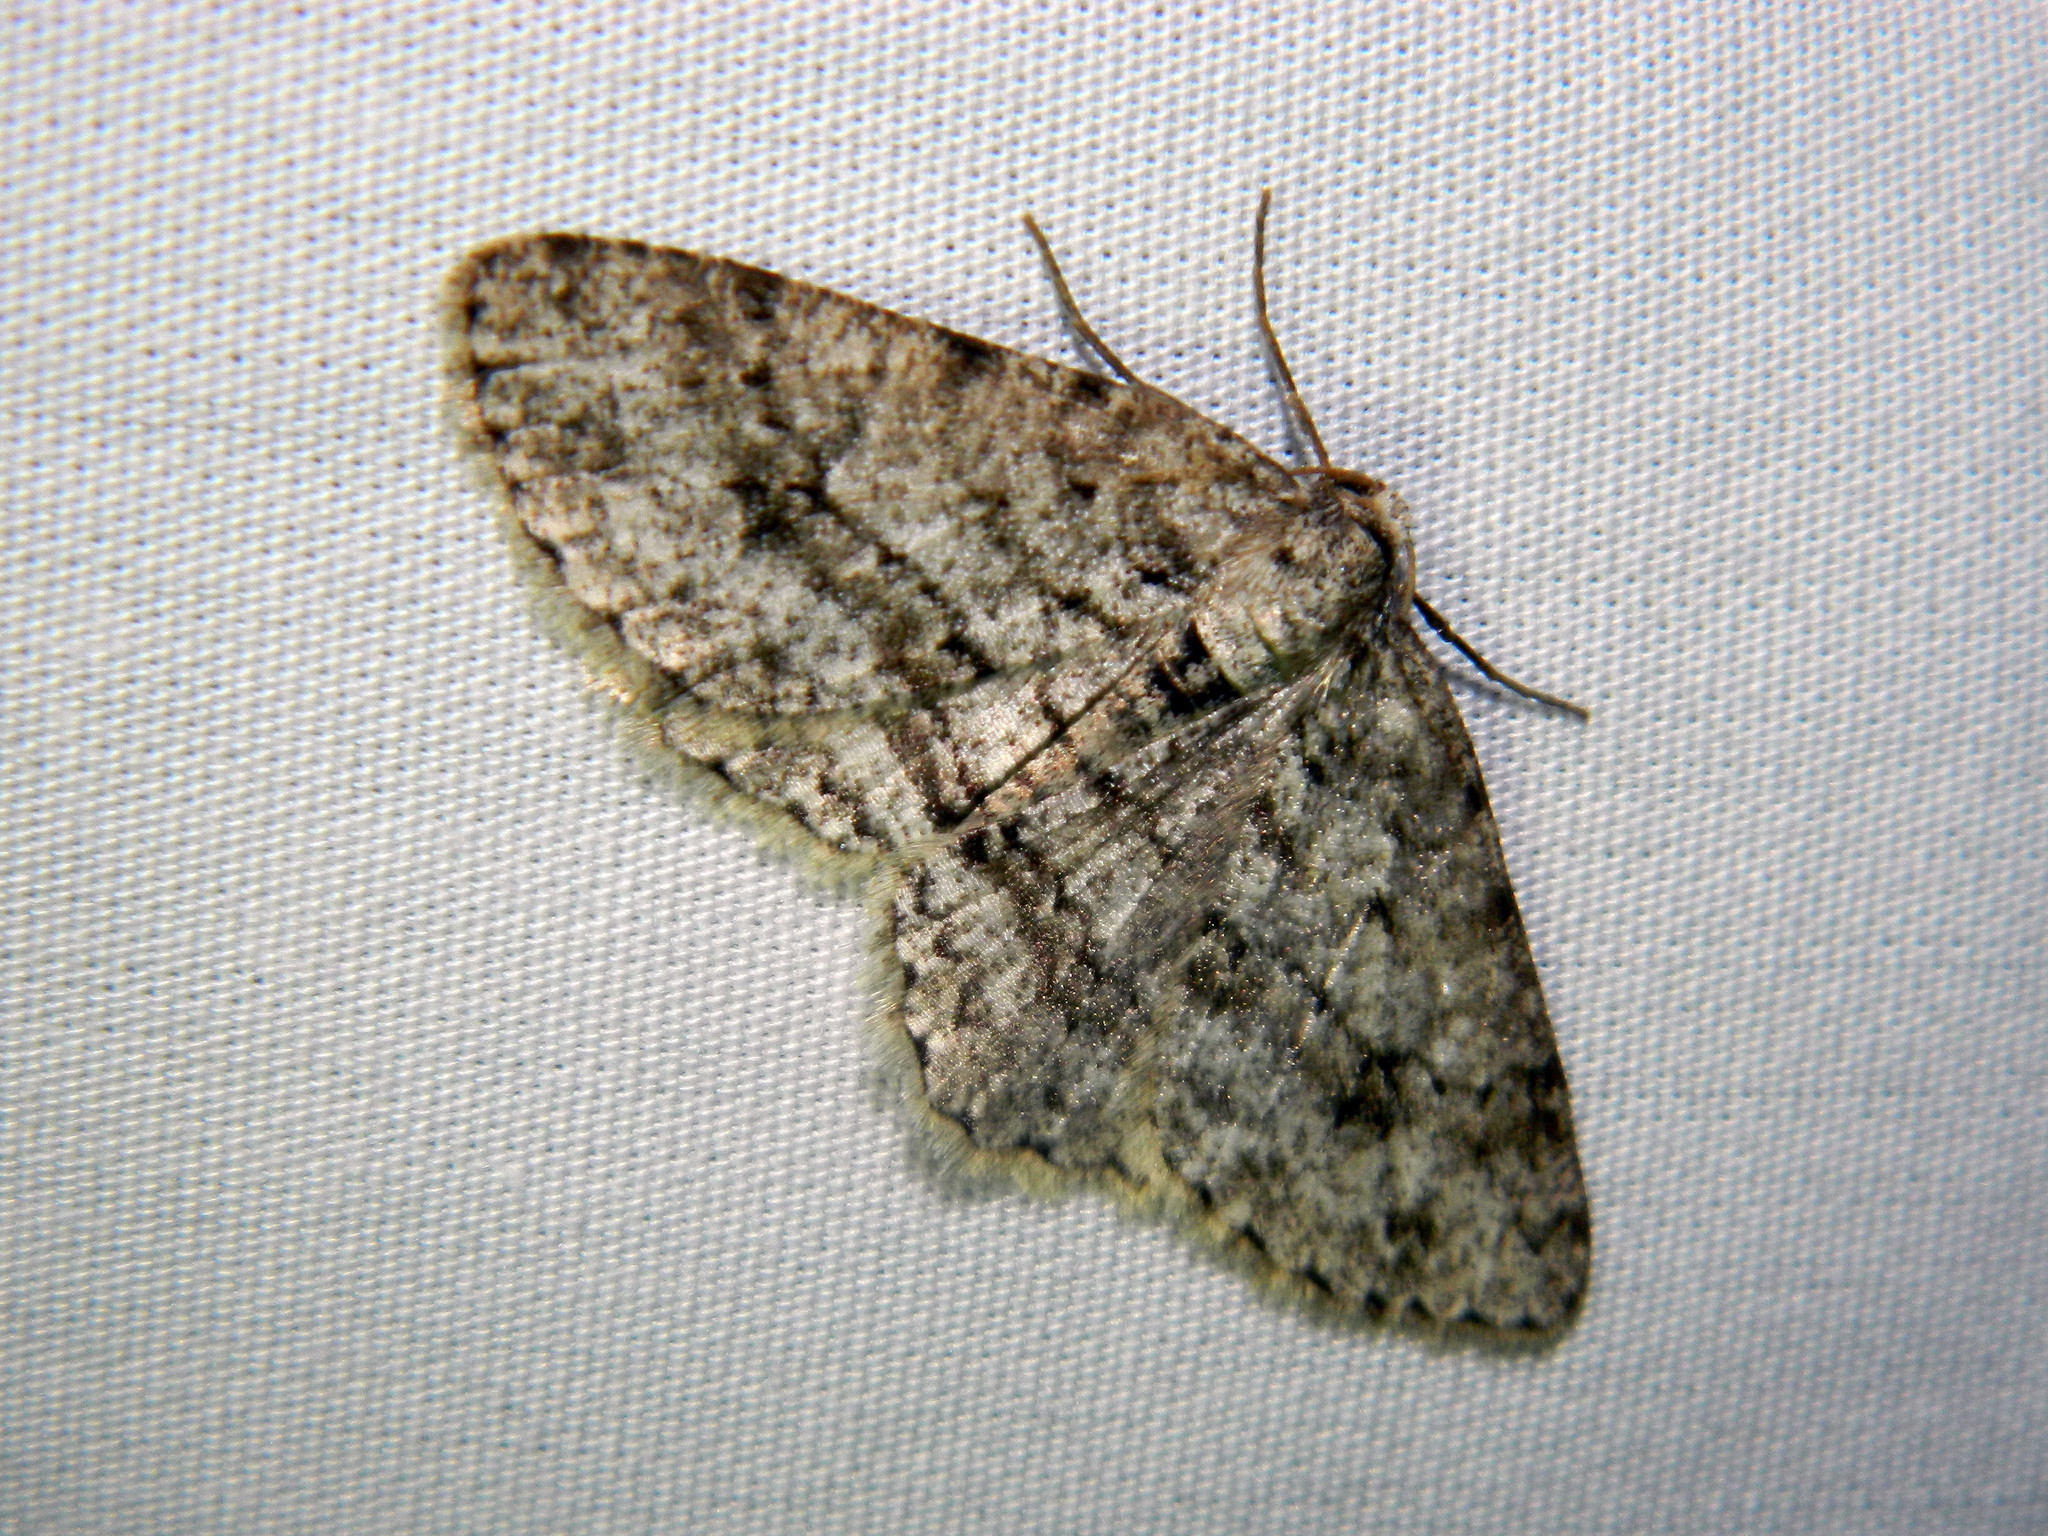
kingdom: Animalia
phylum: Arthropoda
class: Insecta
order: Lepidoptera
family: Geometridae
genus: Ectropis
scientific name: Ectropis crepuscularia
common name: Engrailed
